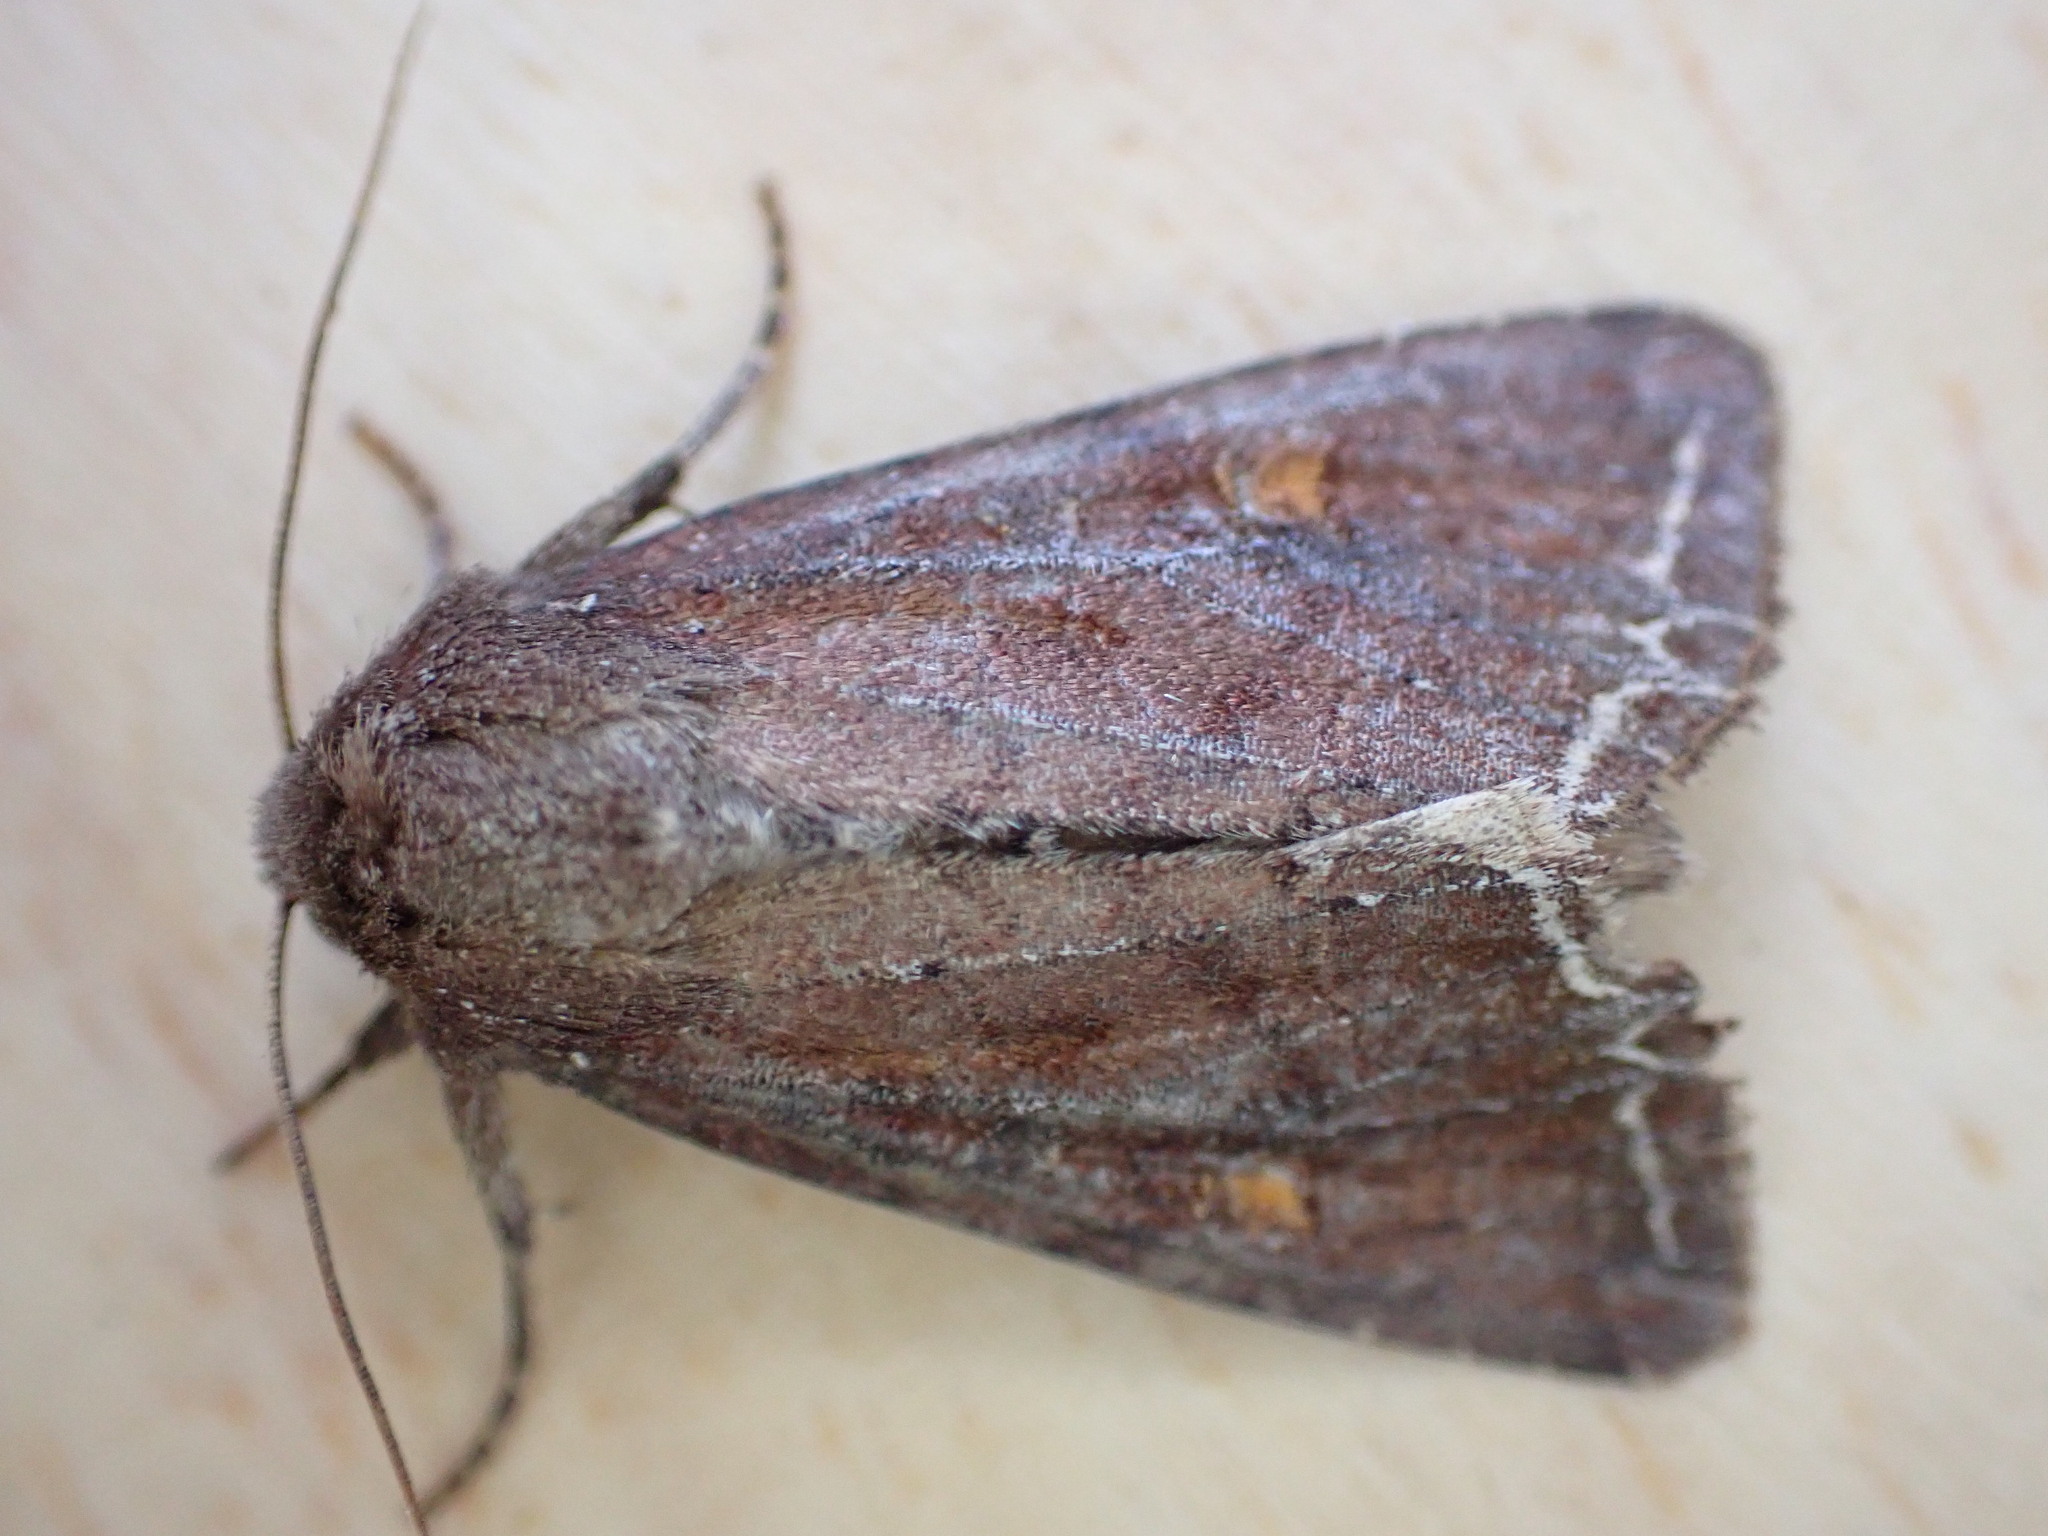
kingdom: Animalia
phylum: Arthropoda
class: Insecta
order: Lepidoptera
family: Noctuidae
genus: Lacanobia
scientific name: Lacanobia oleracea
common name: Bright-line brown-eye
